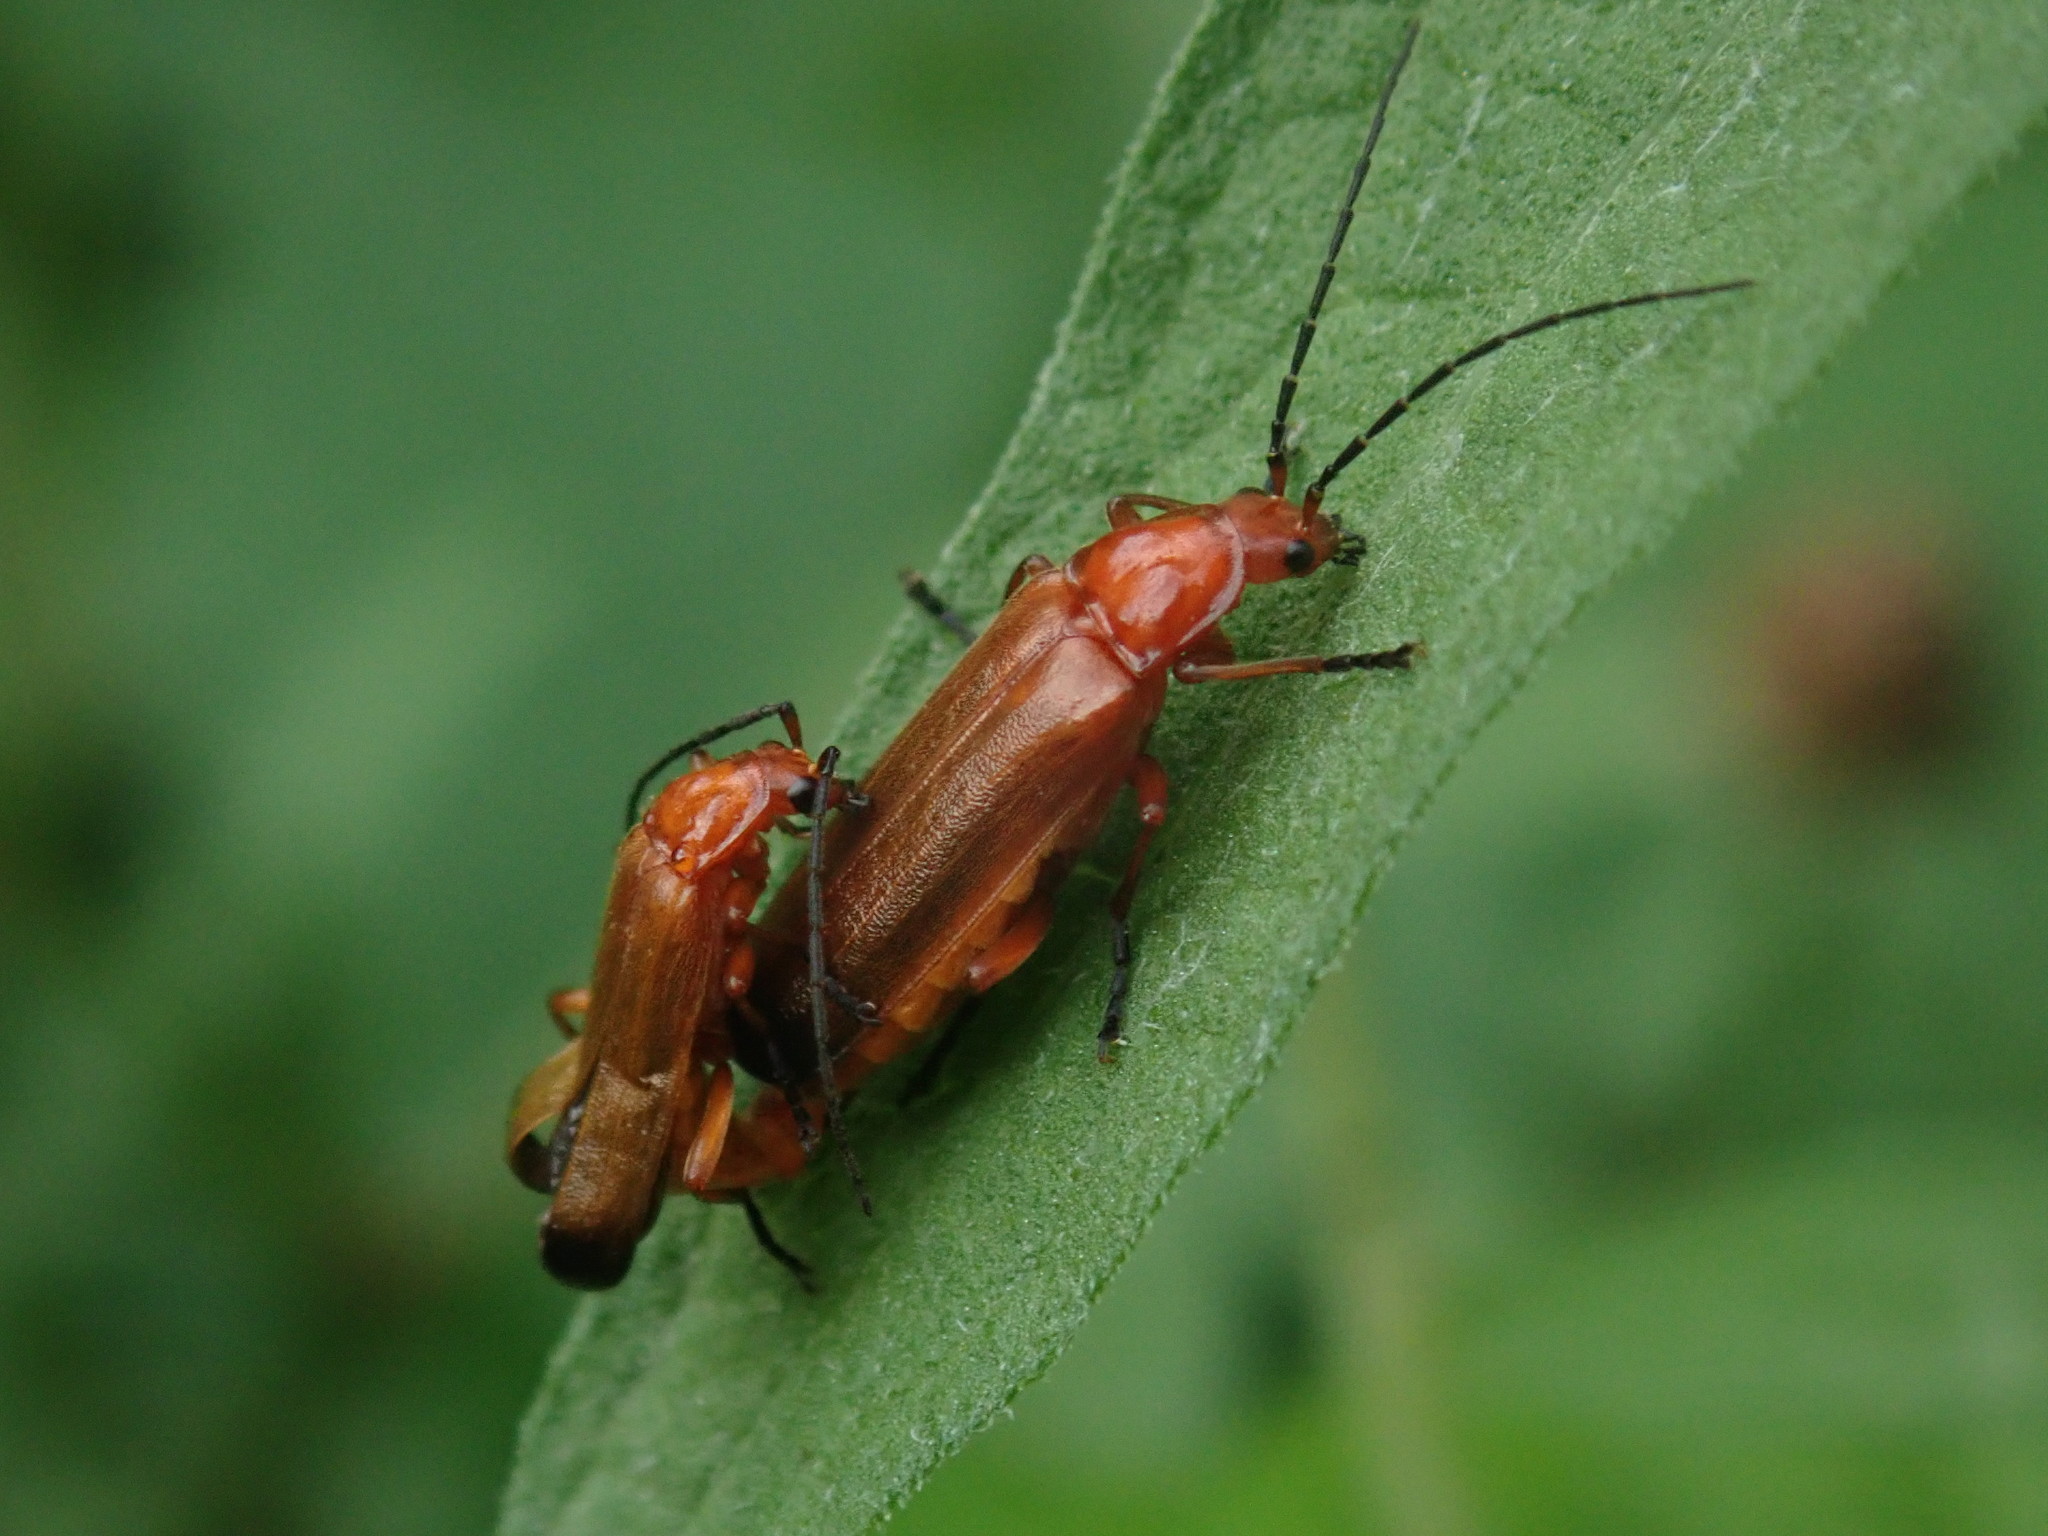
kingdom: Animalia
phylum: Arthropoda
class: Insecta
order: Coleoptera
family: Cantharidae
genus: Rhagonycha
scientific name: Rhagonycha fulva
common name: Common red soldier beetle
